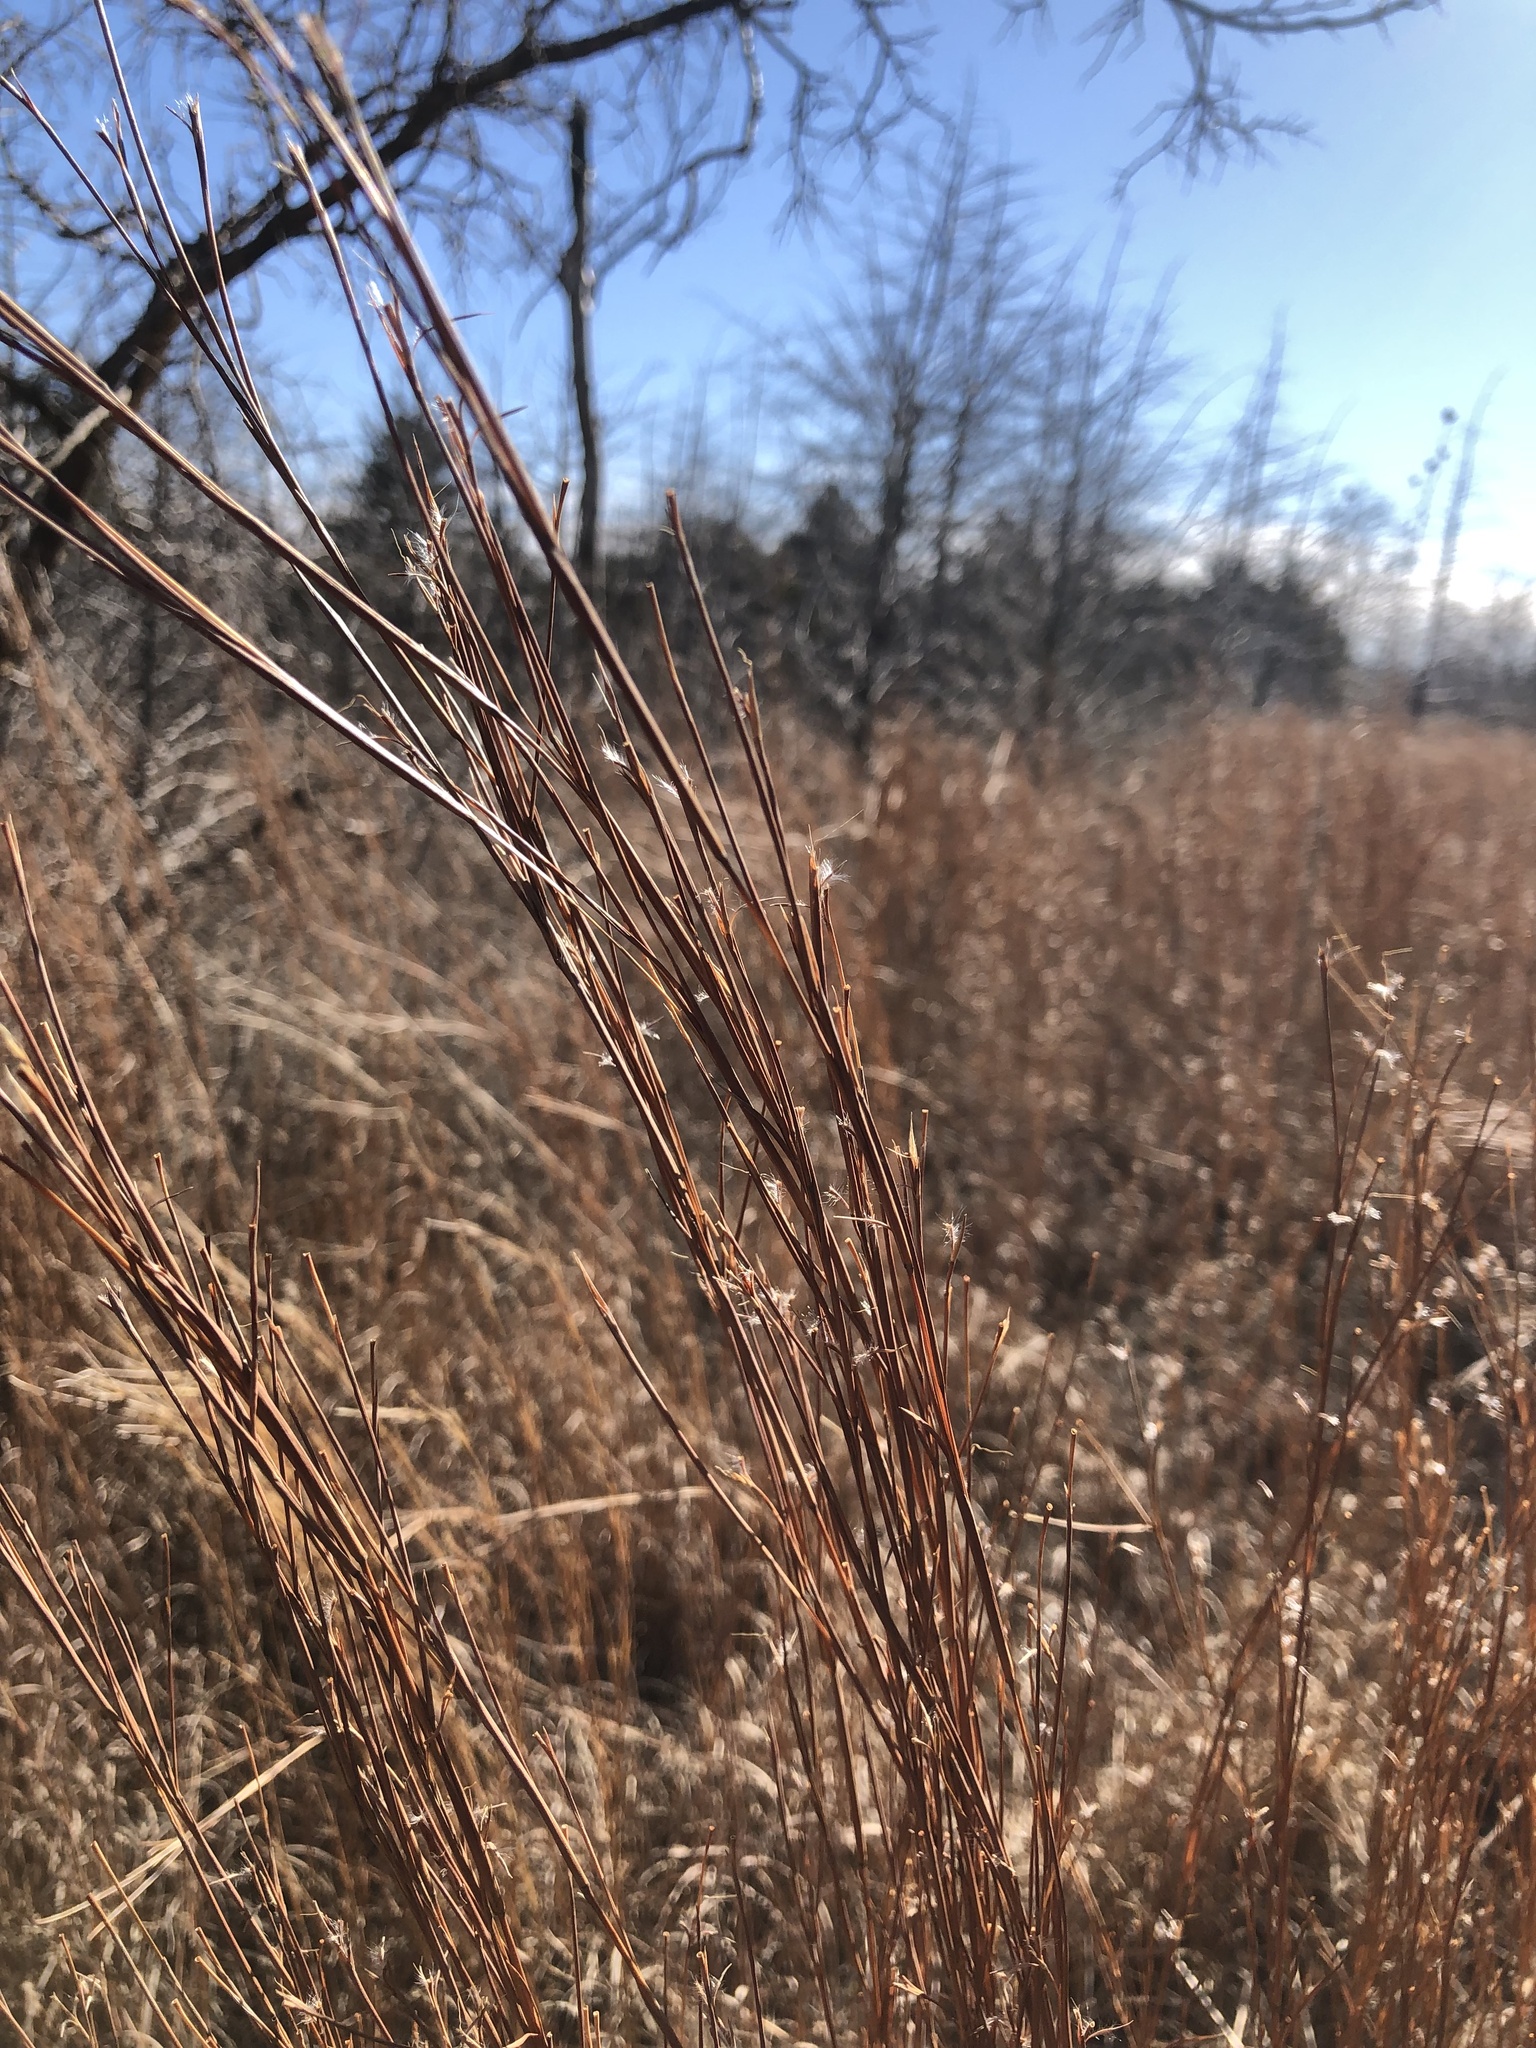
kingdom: Plantae
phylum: Tracheophyta
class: Liliopsida
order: Poales
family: Poaceae
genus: Schizachyrium
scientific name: Schizachyrium scoparium
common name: Little bluestem
